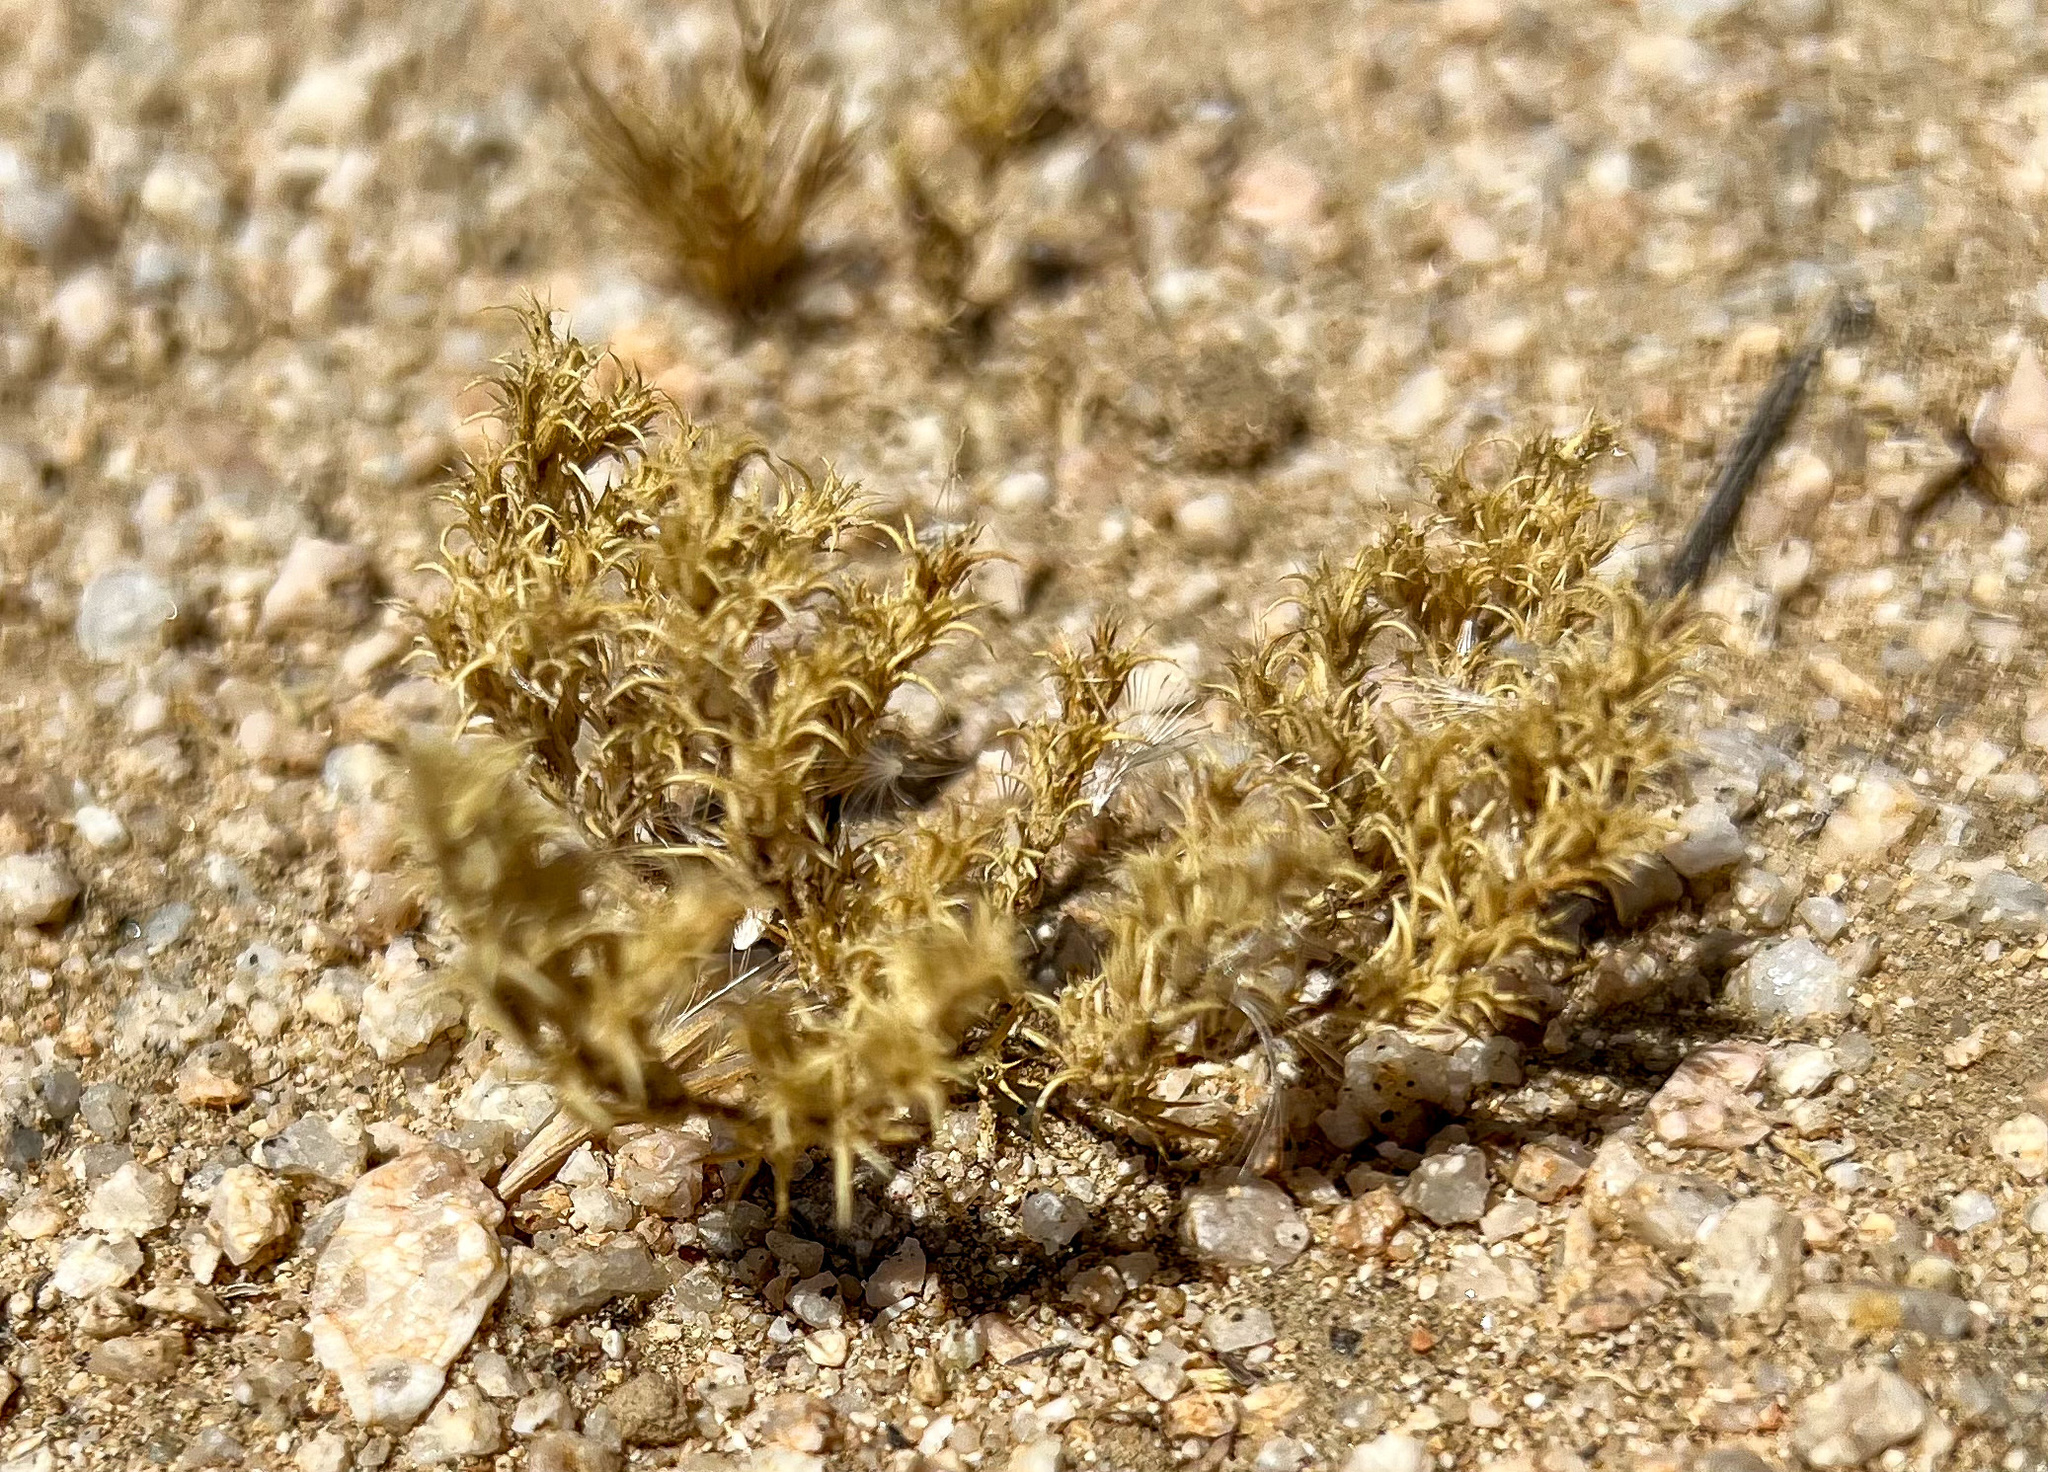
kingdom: Plantae
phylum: Tracheophyta
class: Magnoliopsida
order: Caryophyllales
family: Caryophyllaceae
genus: Loeflingia
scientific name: Loeflingia squarrosa
